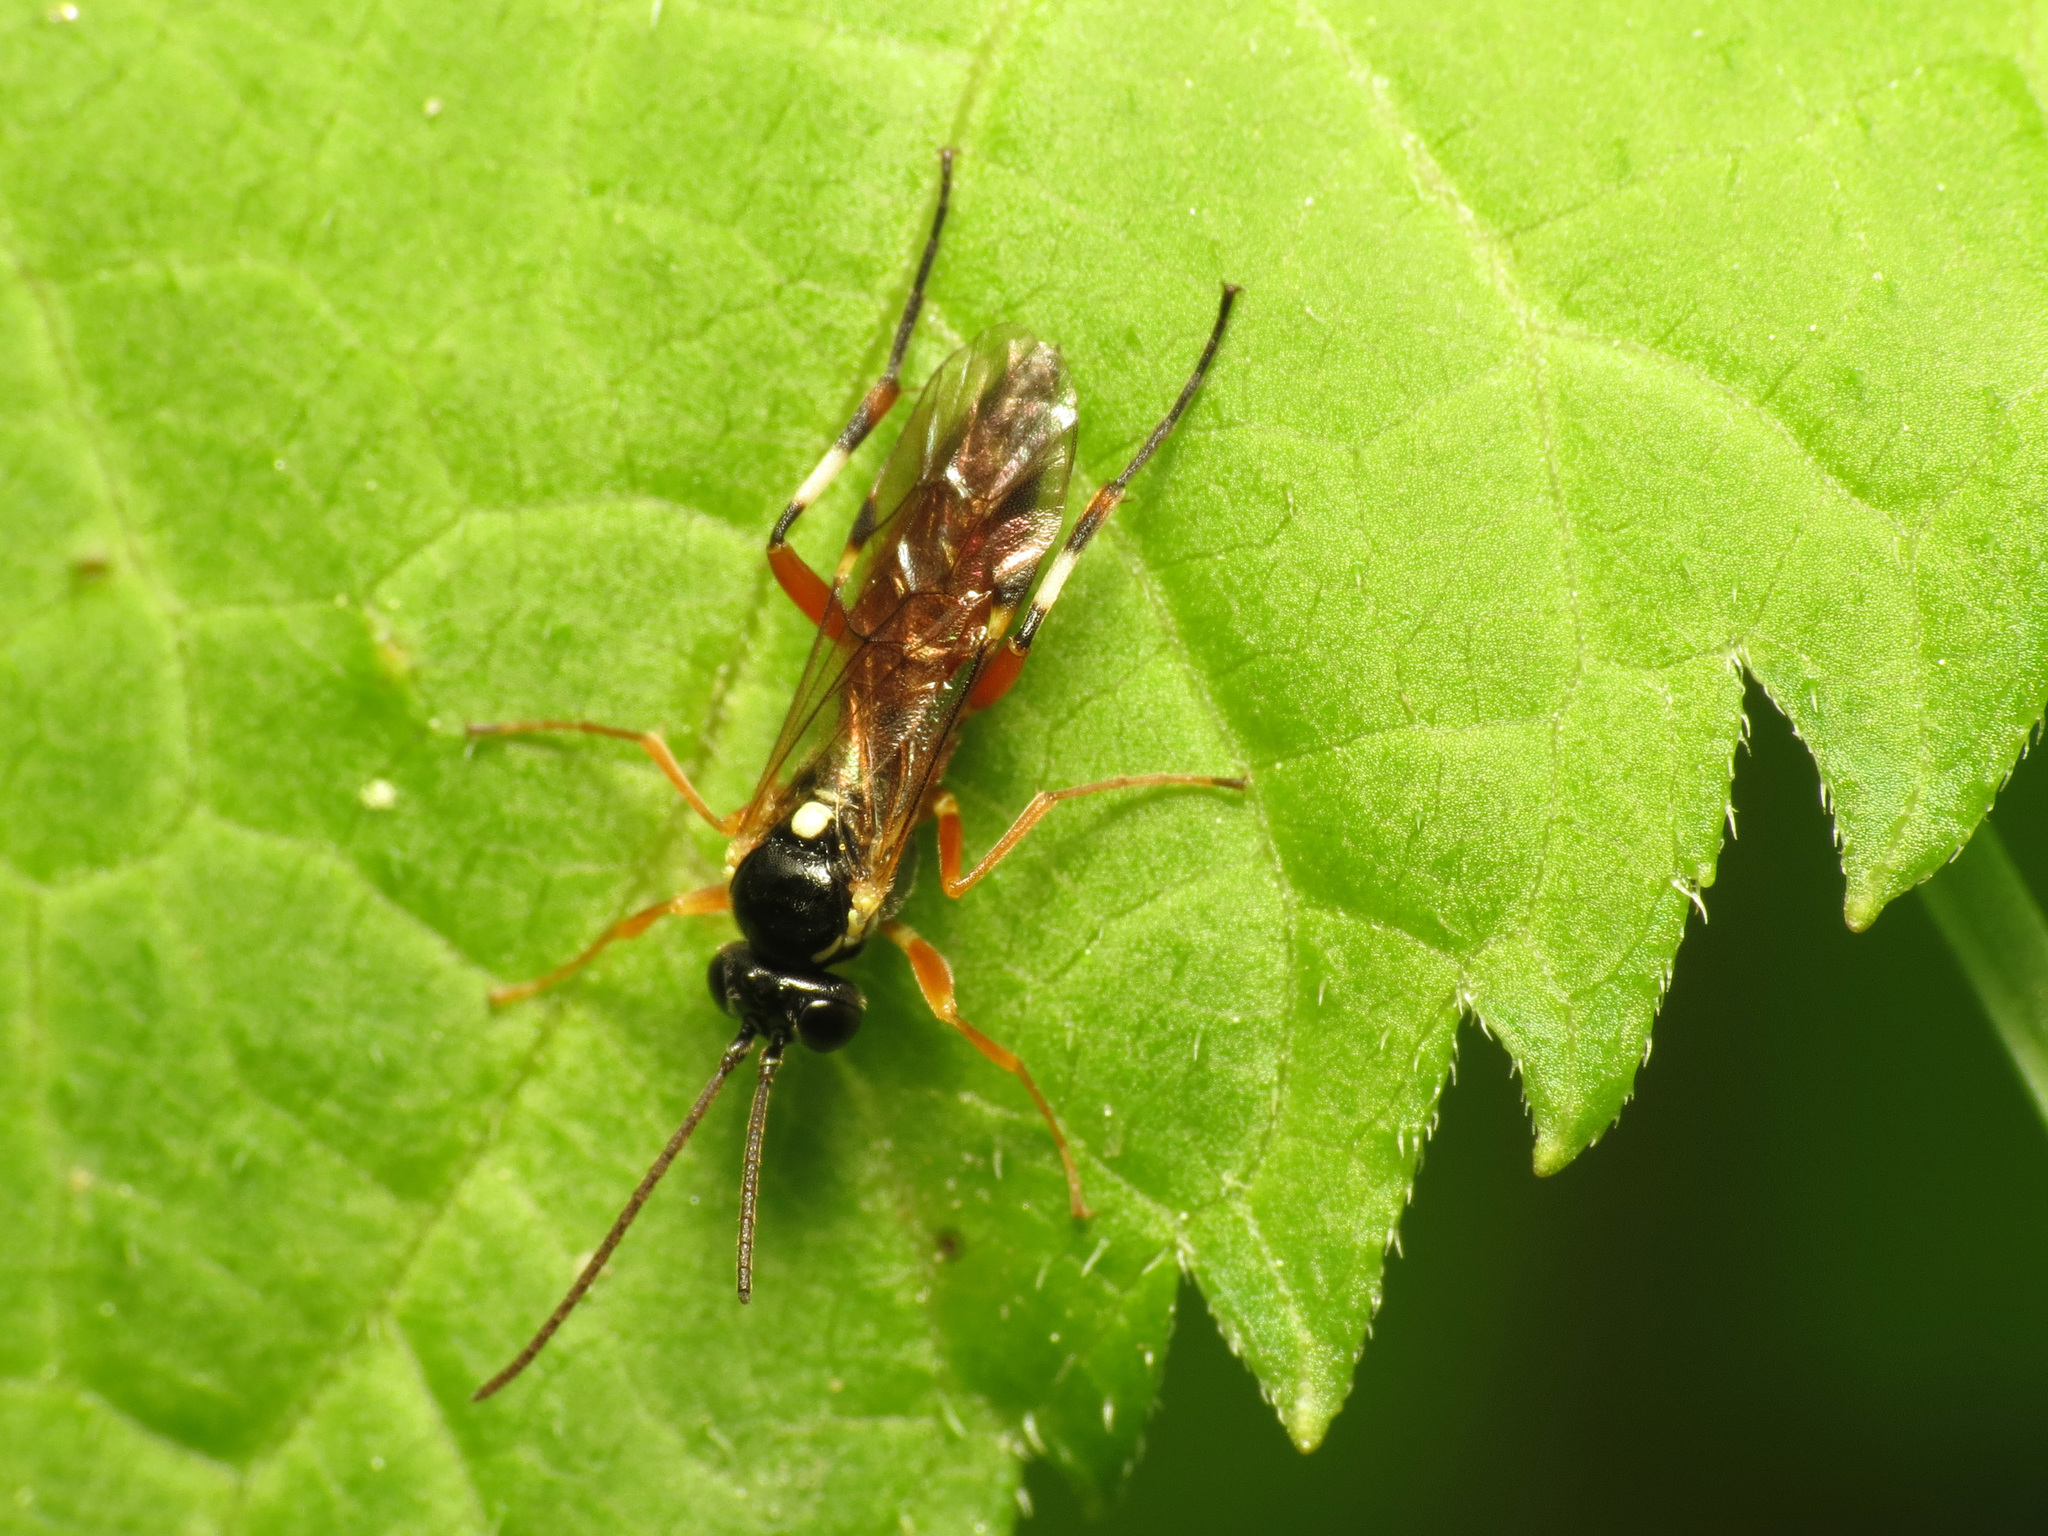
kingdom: Animalia
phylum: Arthropoda
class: Insecta
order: Hymenoptera
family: Ichneumonidae
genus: Diplazon
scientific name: Diplazon laetatorius
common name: Parasitoid wasp
